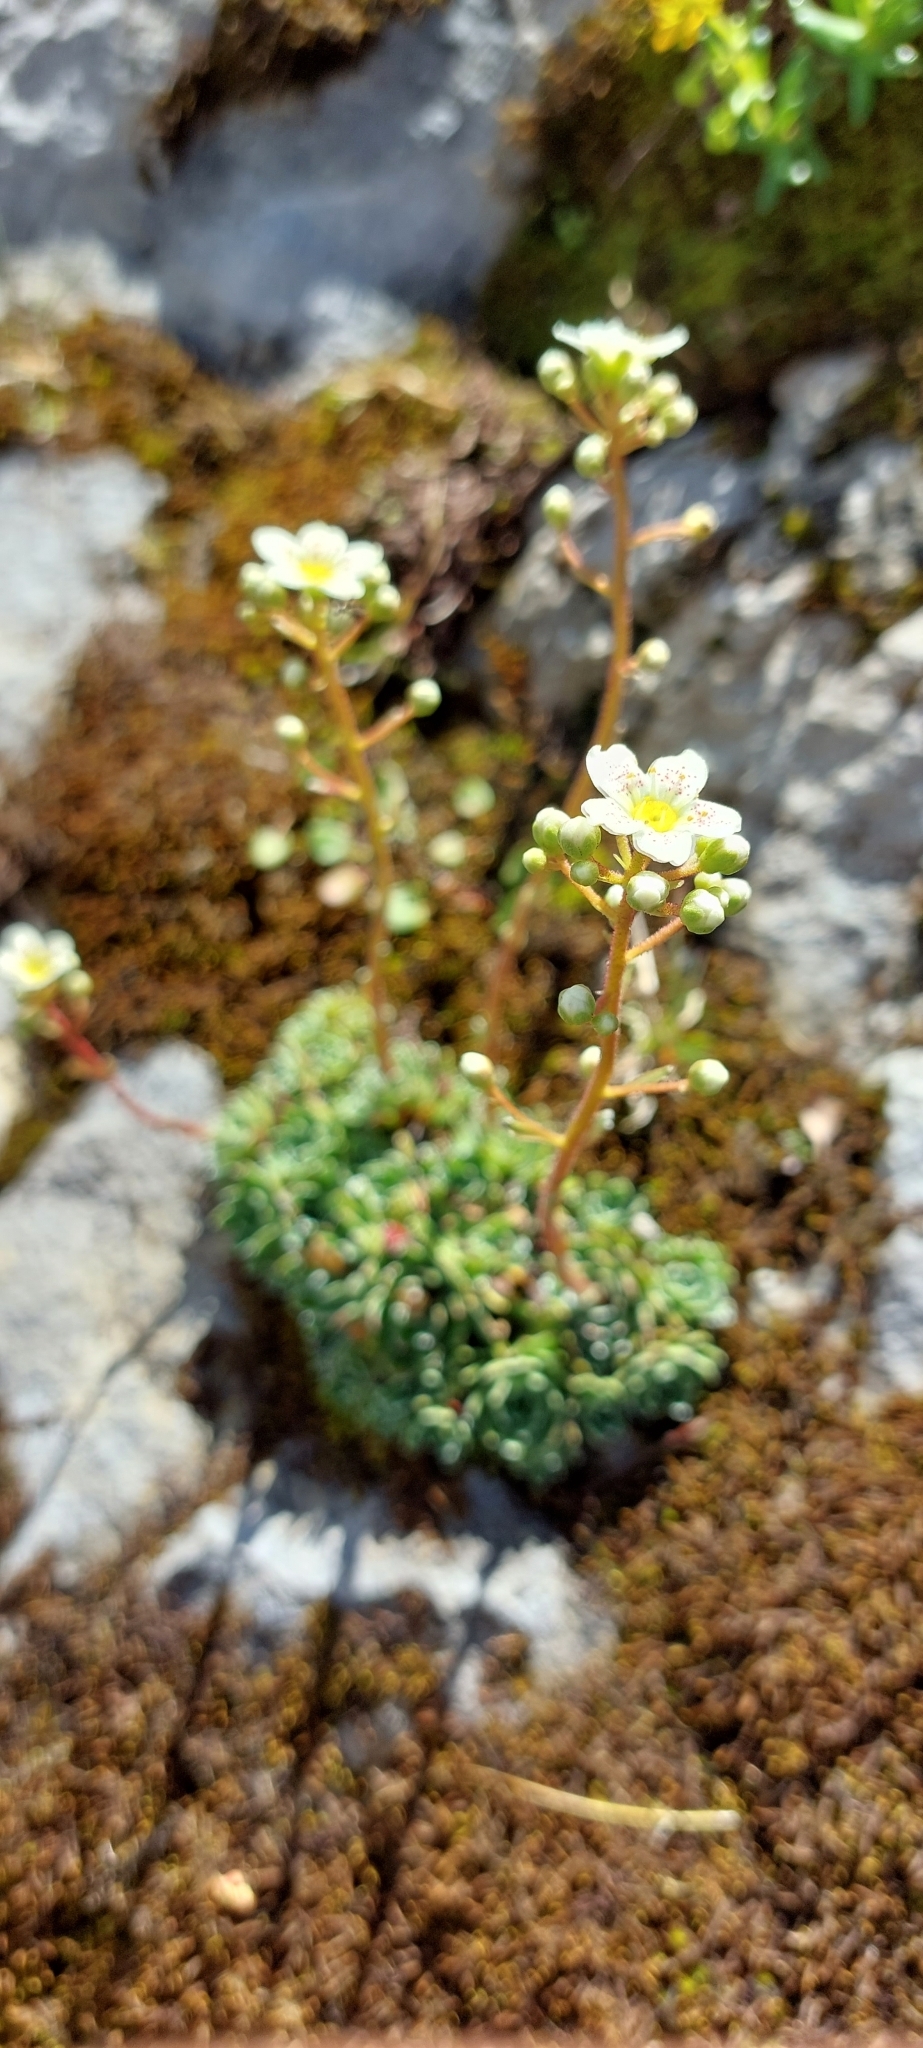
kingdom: Plantae
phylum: Tracheophyta
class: Magnoliopsida
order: Saxifragales
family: Saxifragaceae
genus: Saxifraga
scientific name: Saxifraga paniculata
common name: Livelong saxifrage
